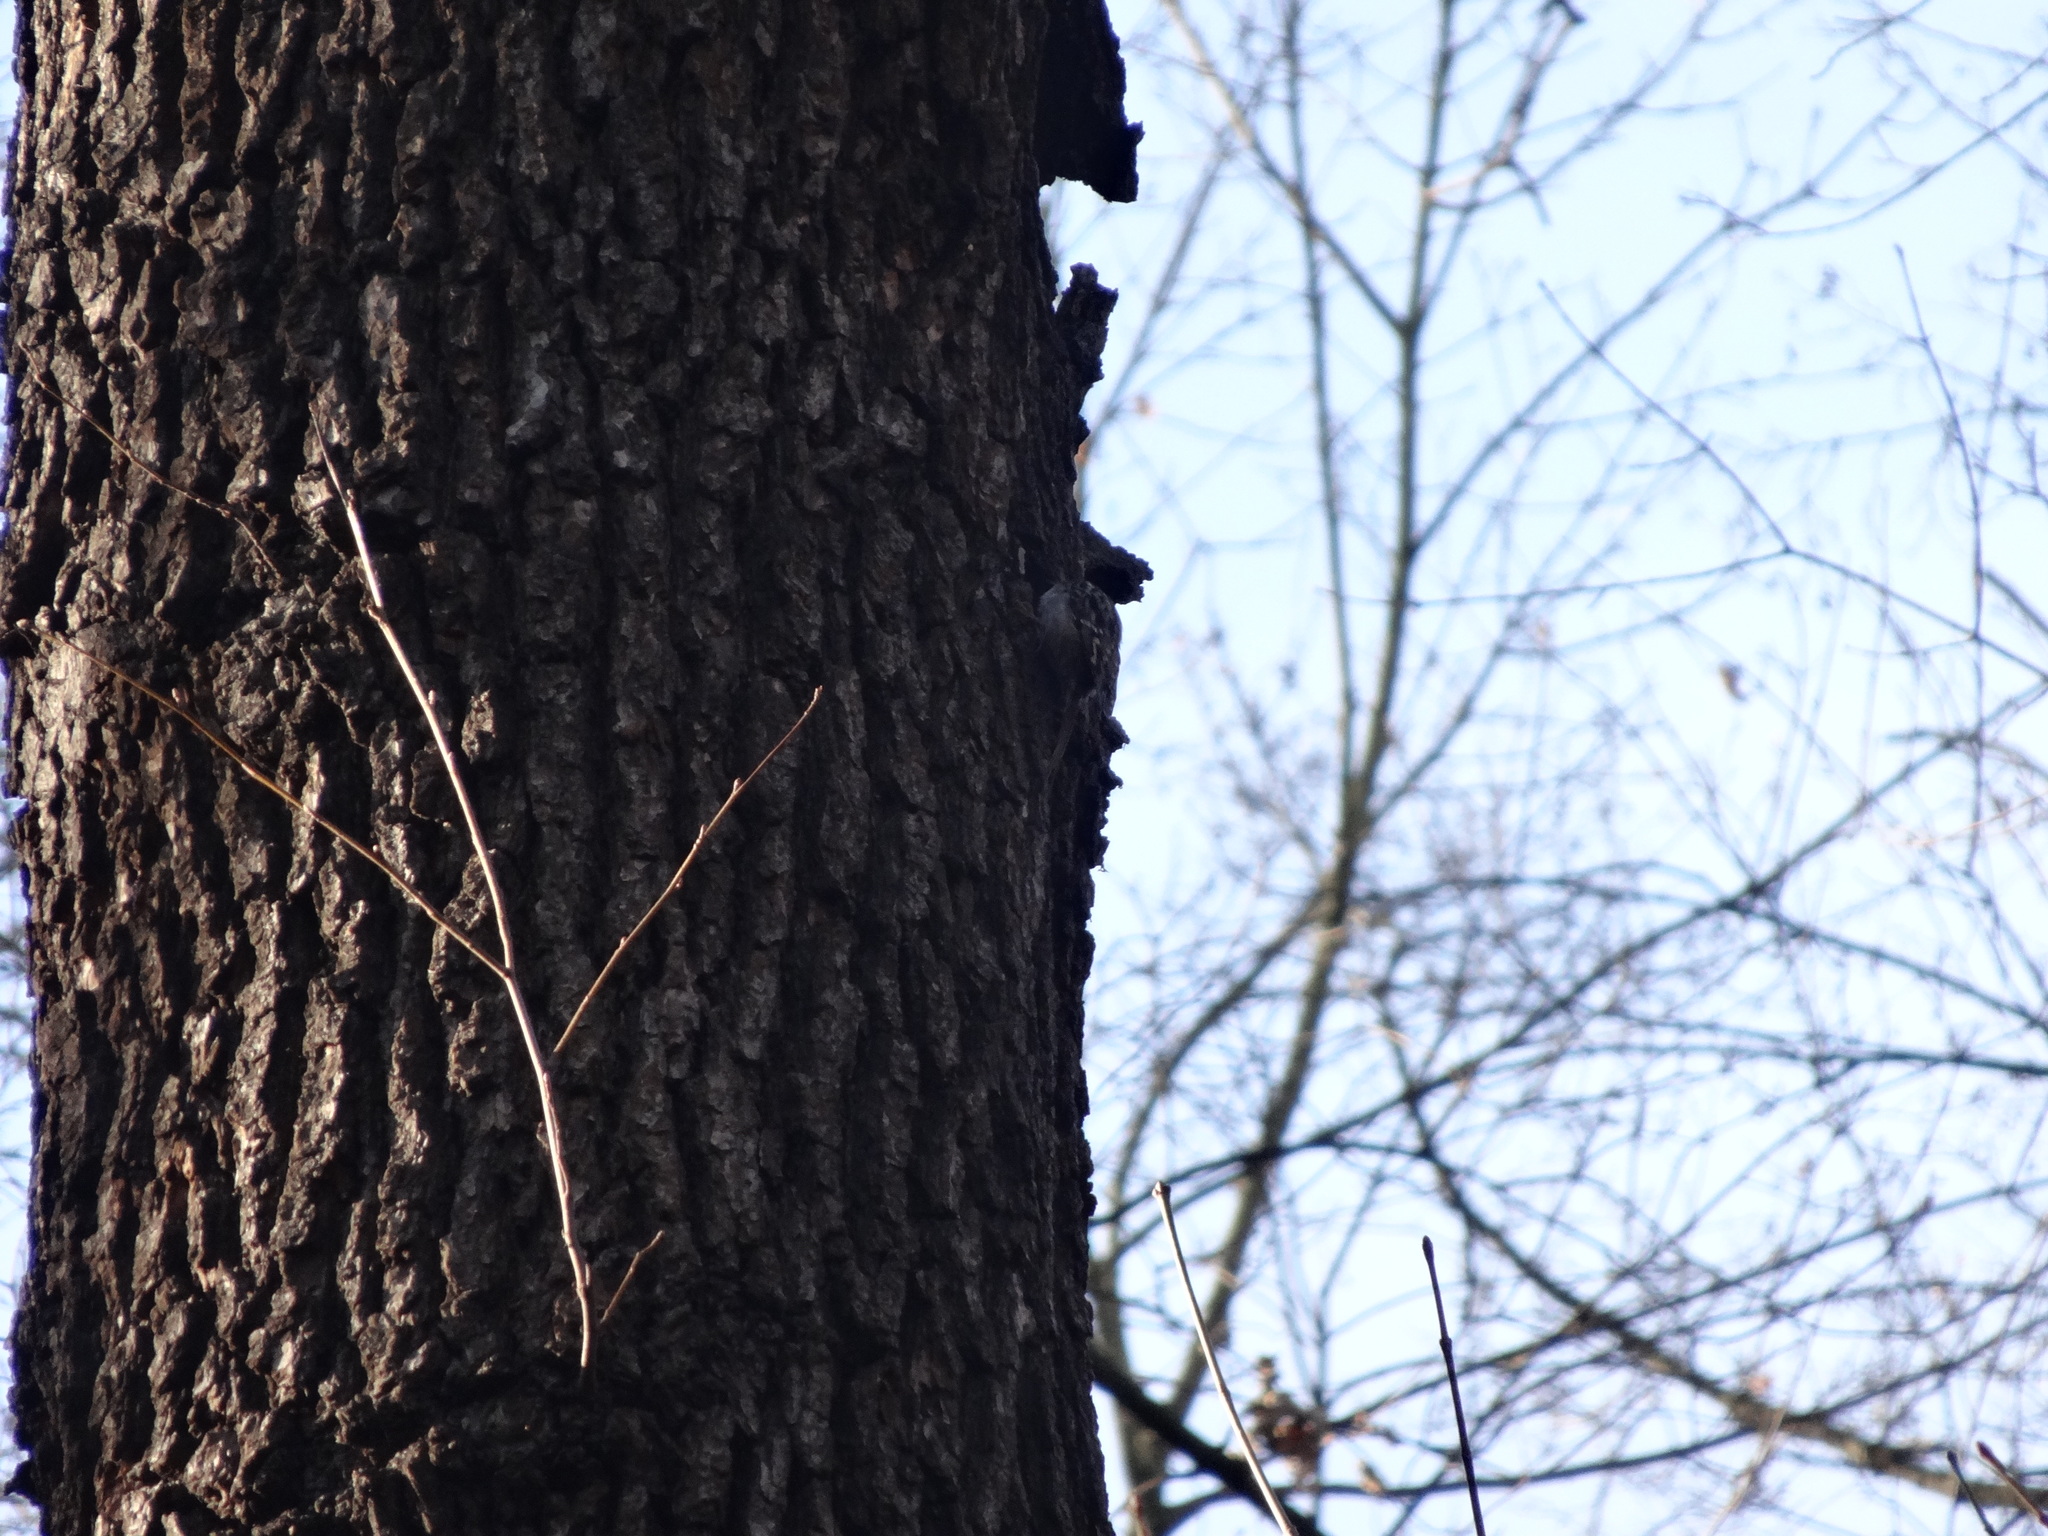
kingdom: Animalia
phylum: Chordata
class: Aves
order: Passeriformes
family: Certhiidae
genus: Certhia
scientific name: Certhia brachydactyla
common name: Short-toed treecreeper
